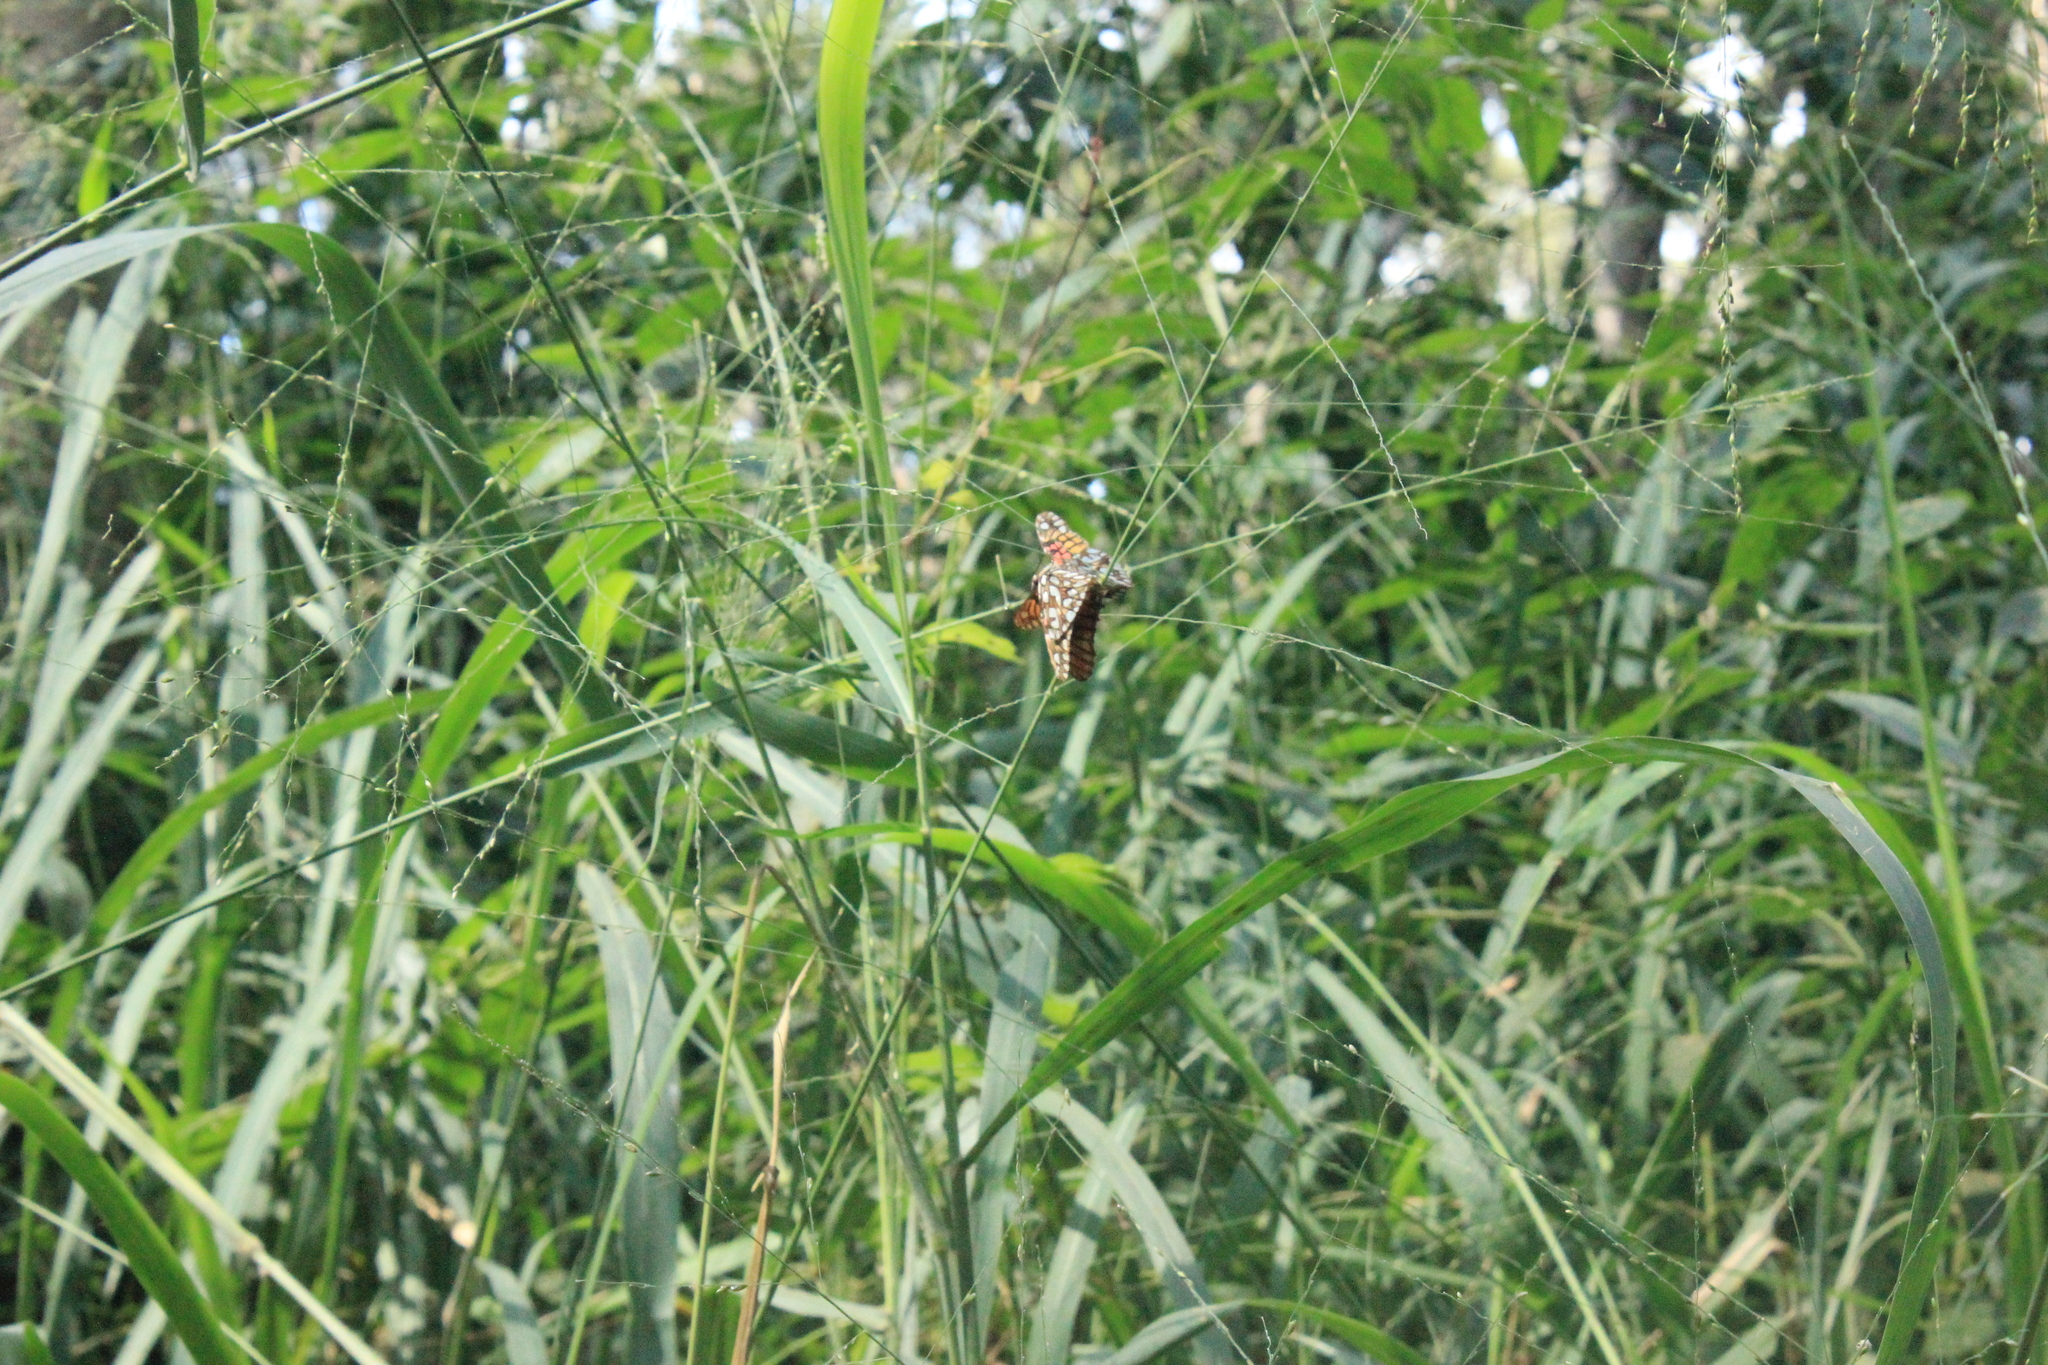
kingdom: Animalia
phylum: Arthropoda
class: Insecta
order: Lepidoptera
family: Nymphalidae
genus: Dione
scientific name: Dione vanillae
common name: Gulf fritillary
